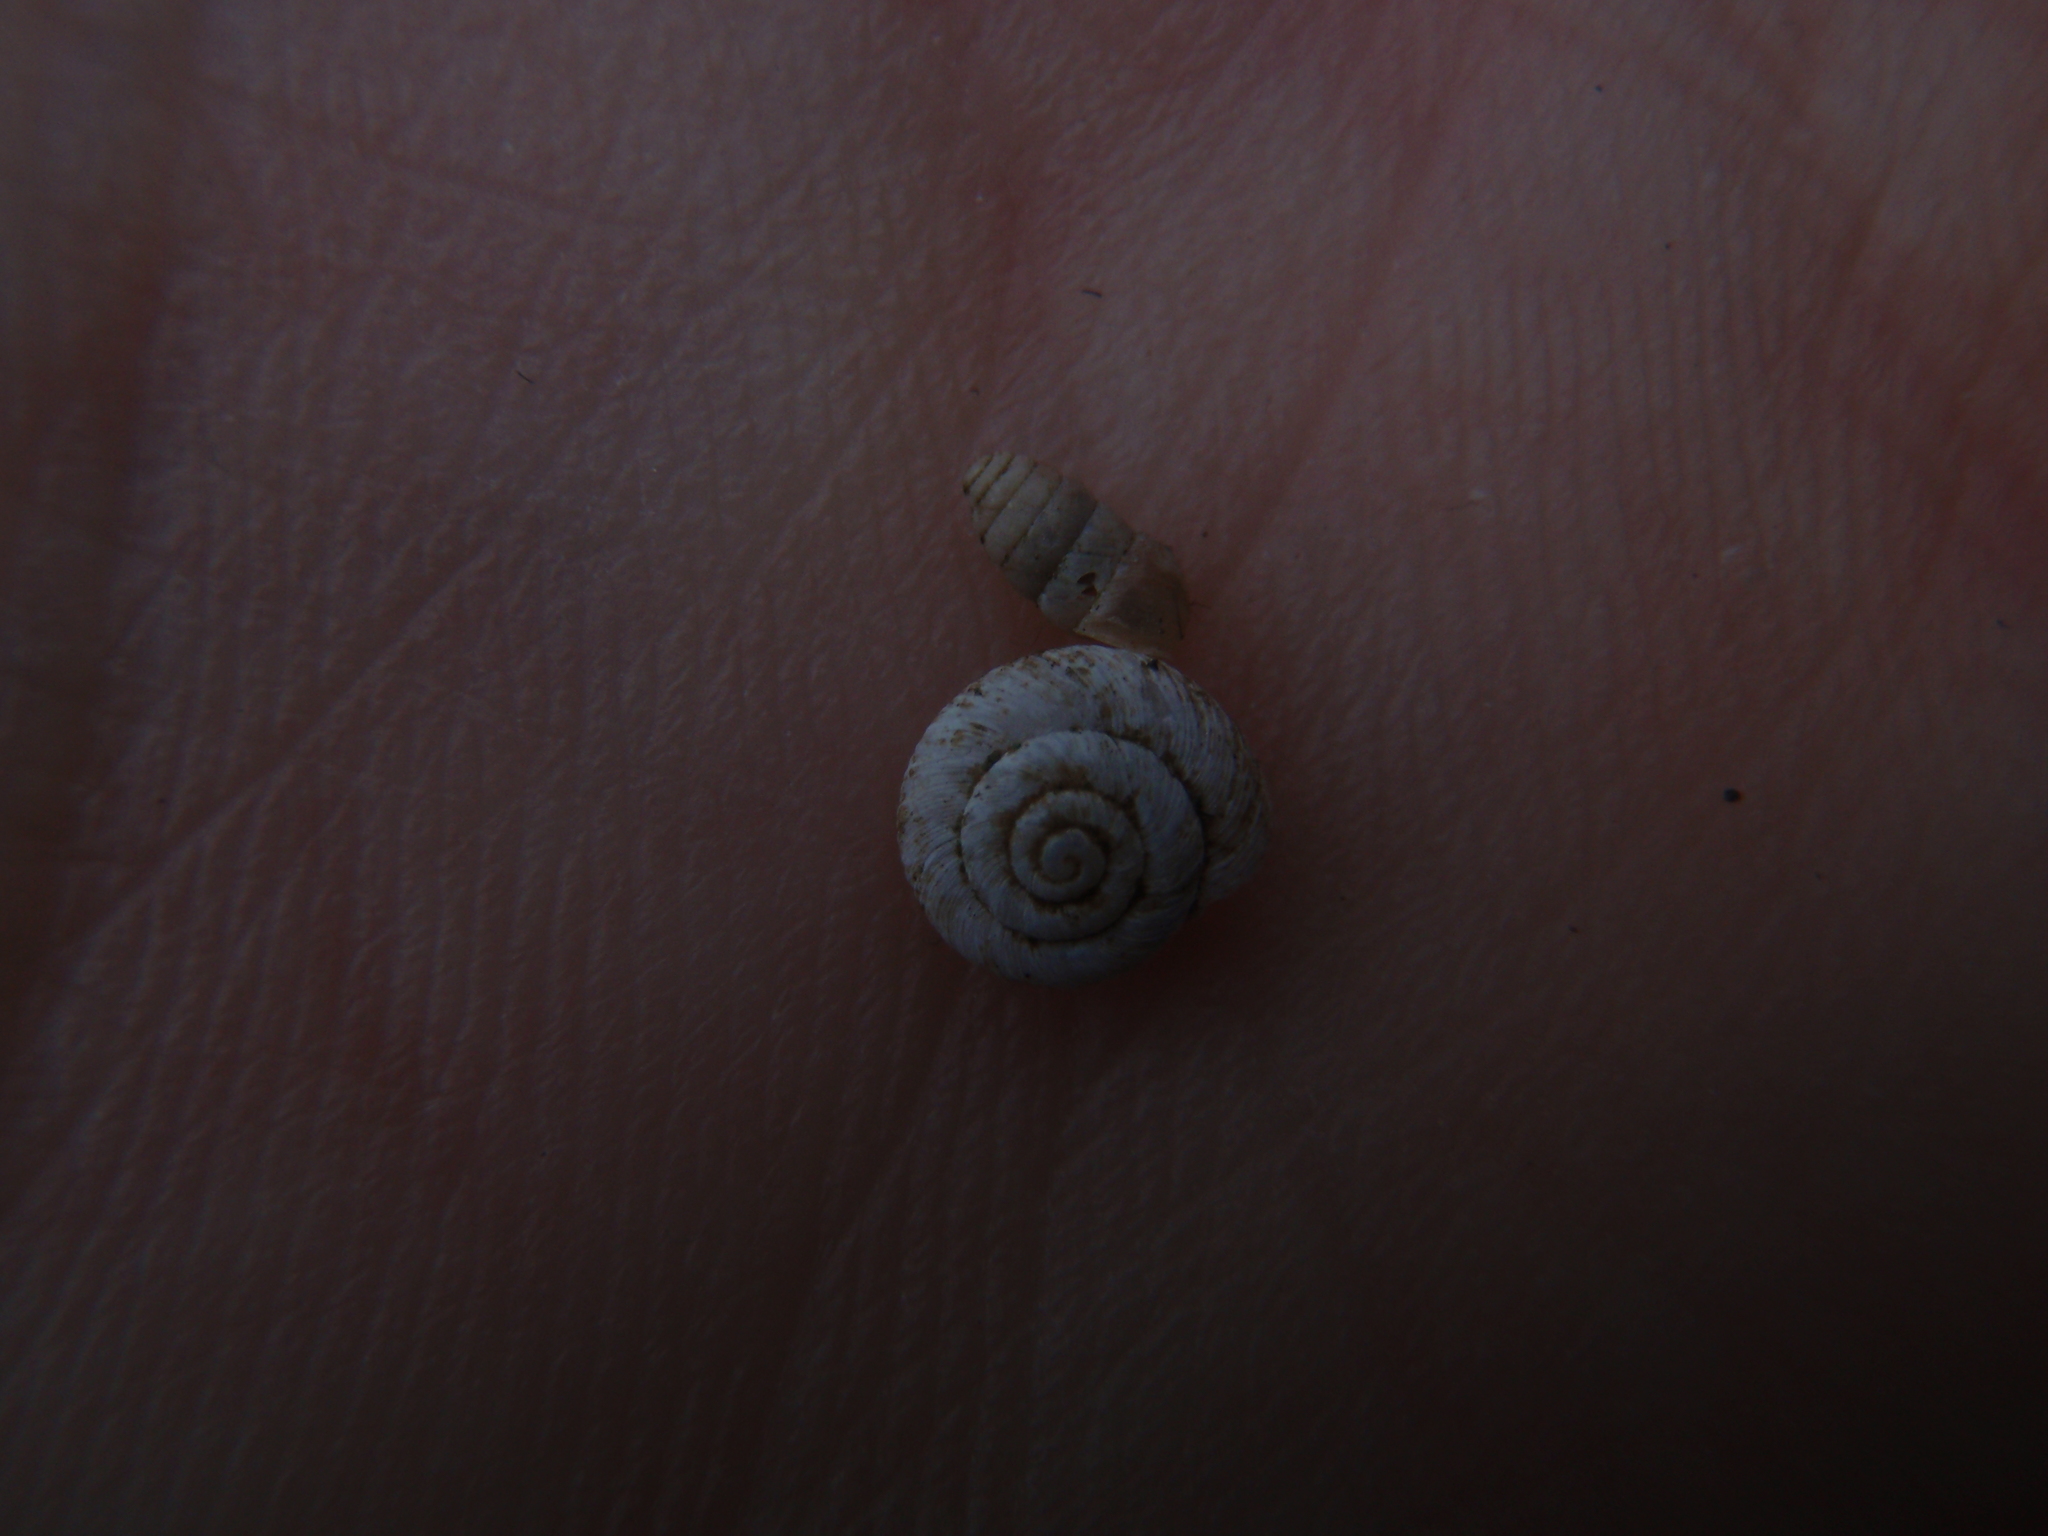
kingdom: Animalia
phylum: Mollusca
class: Gastropoda
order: Stylommatophora
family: Lauriidae
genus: Lauria
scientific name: Lauria cylindracea
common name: Common chrysalis snail
